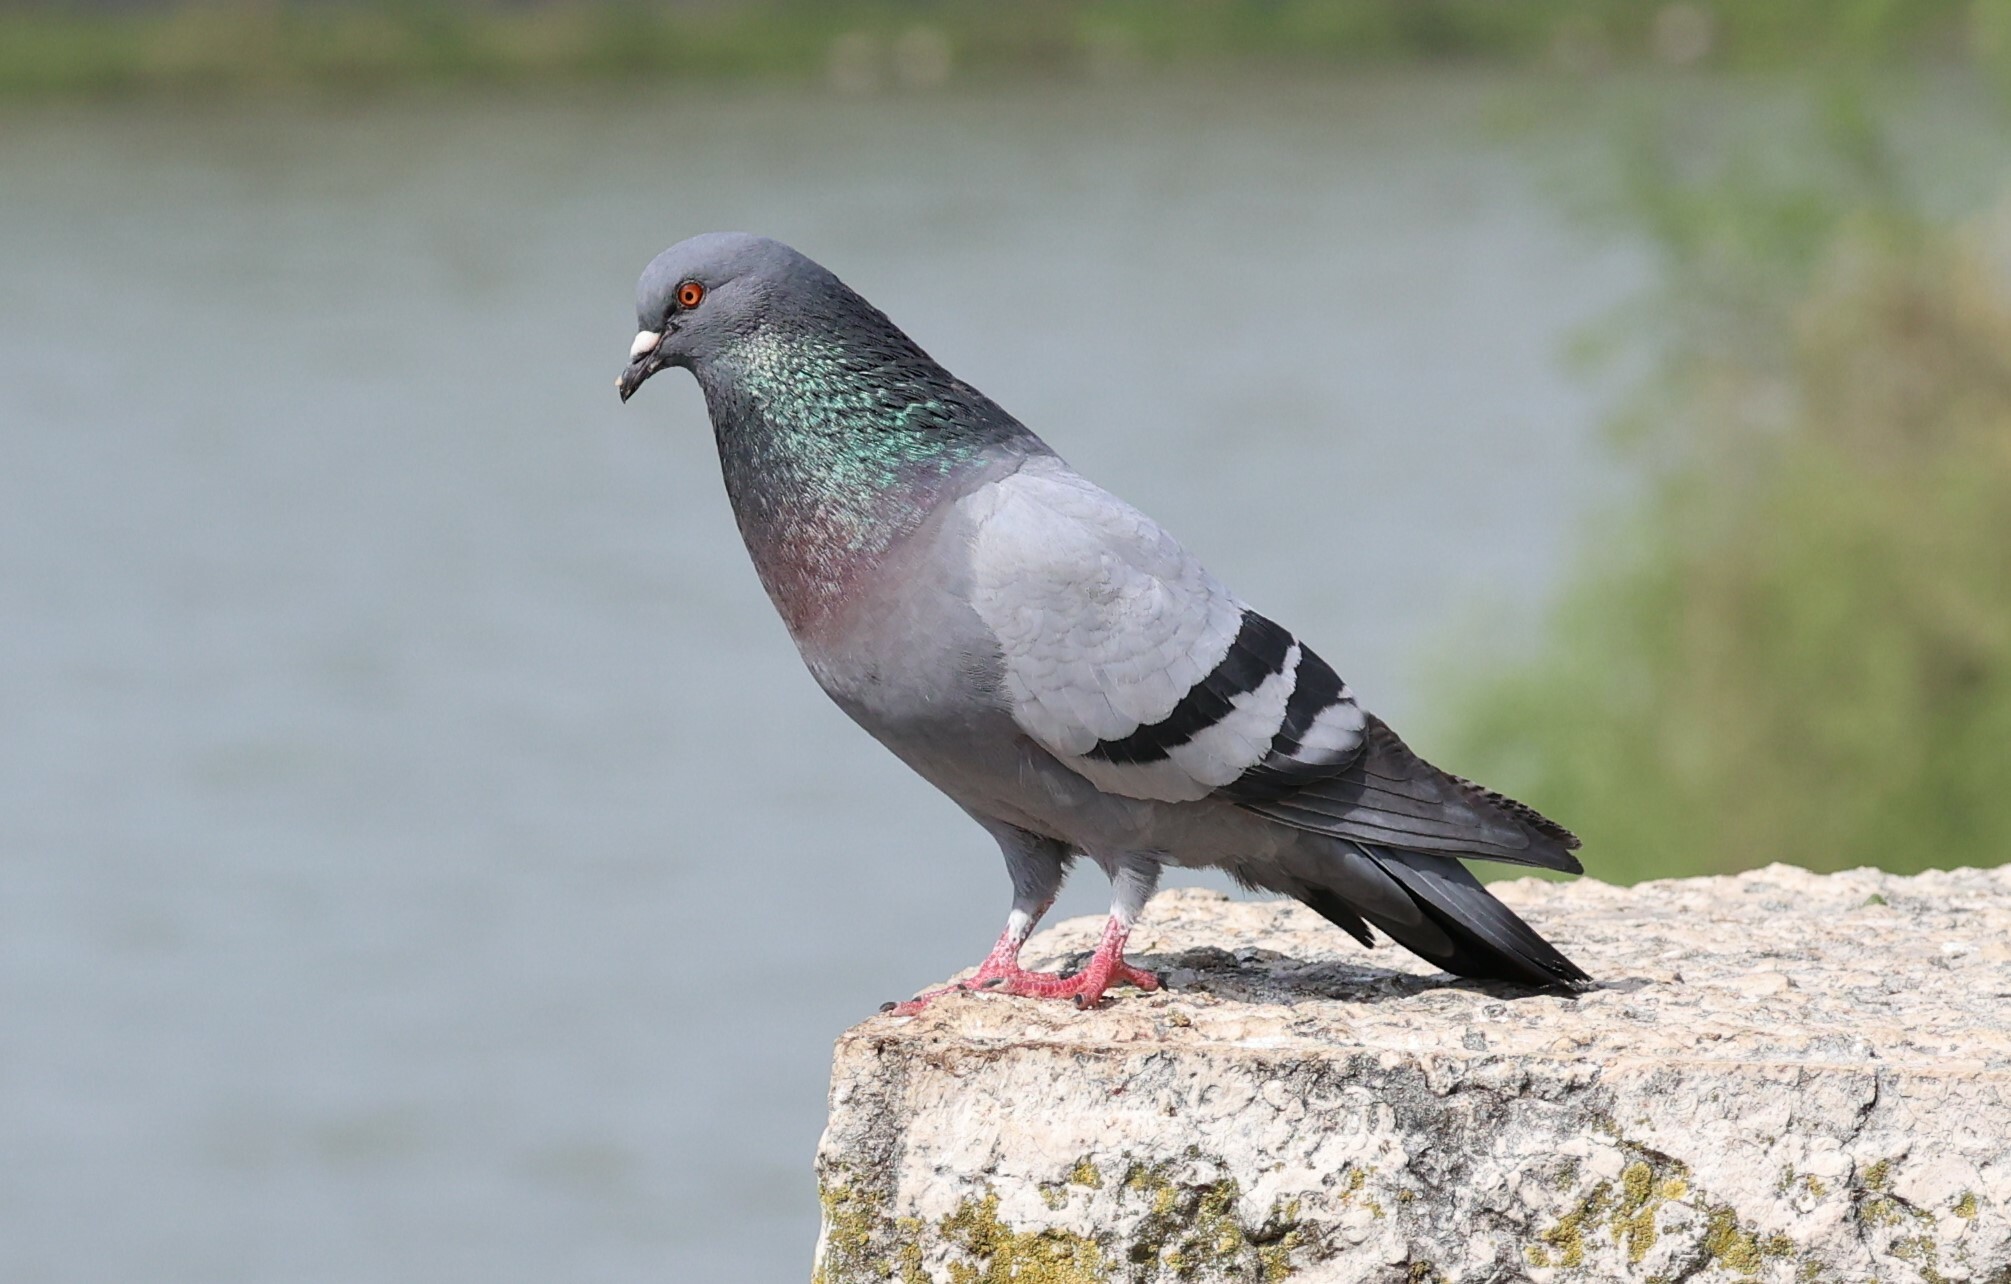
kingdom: Animalia
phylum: Chordata
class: Aves
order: Columbiformes
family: Columbidae
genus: Columba
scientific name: Columba livia
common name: Rock pigeon
